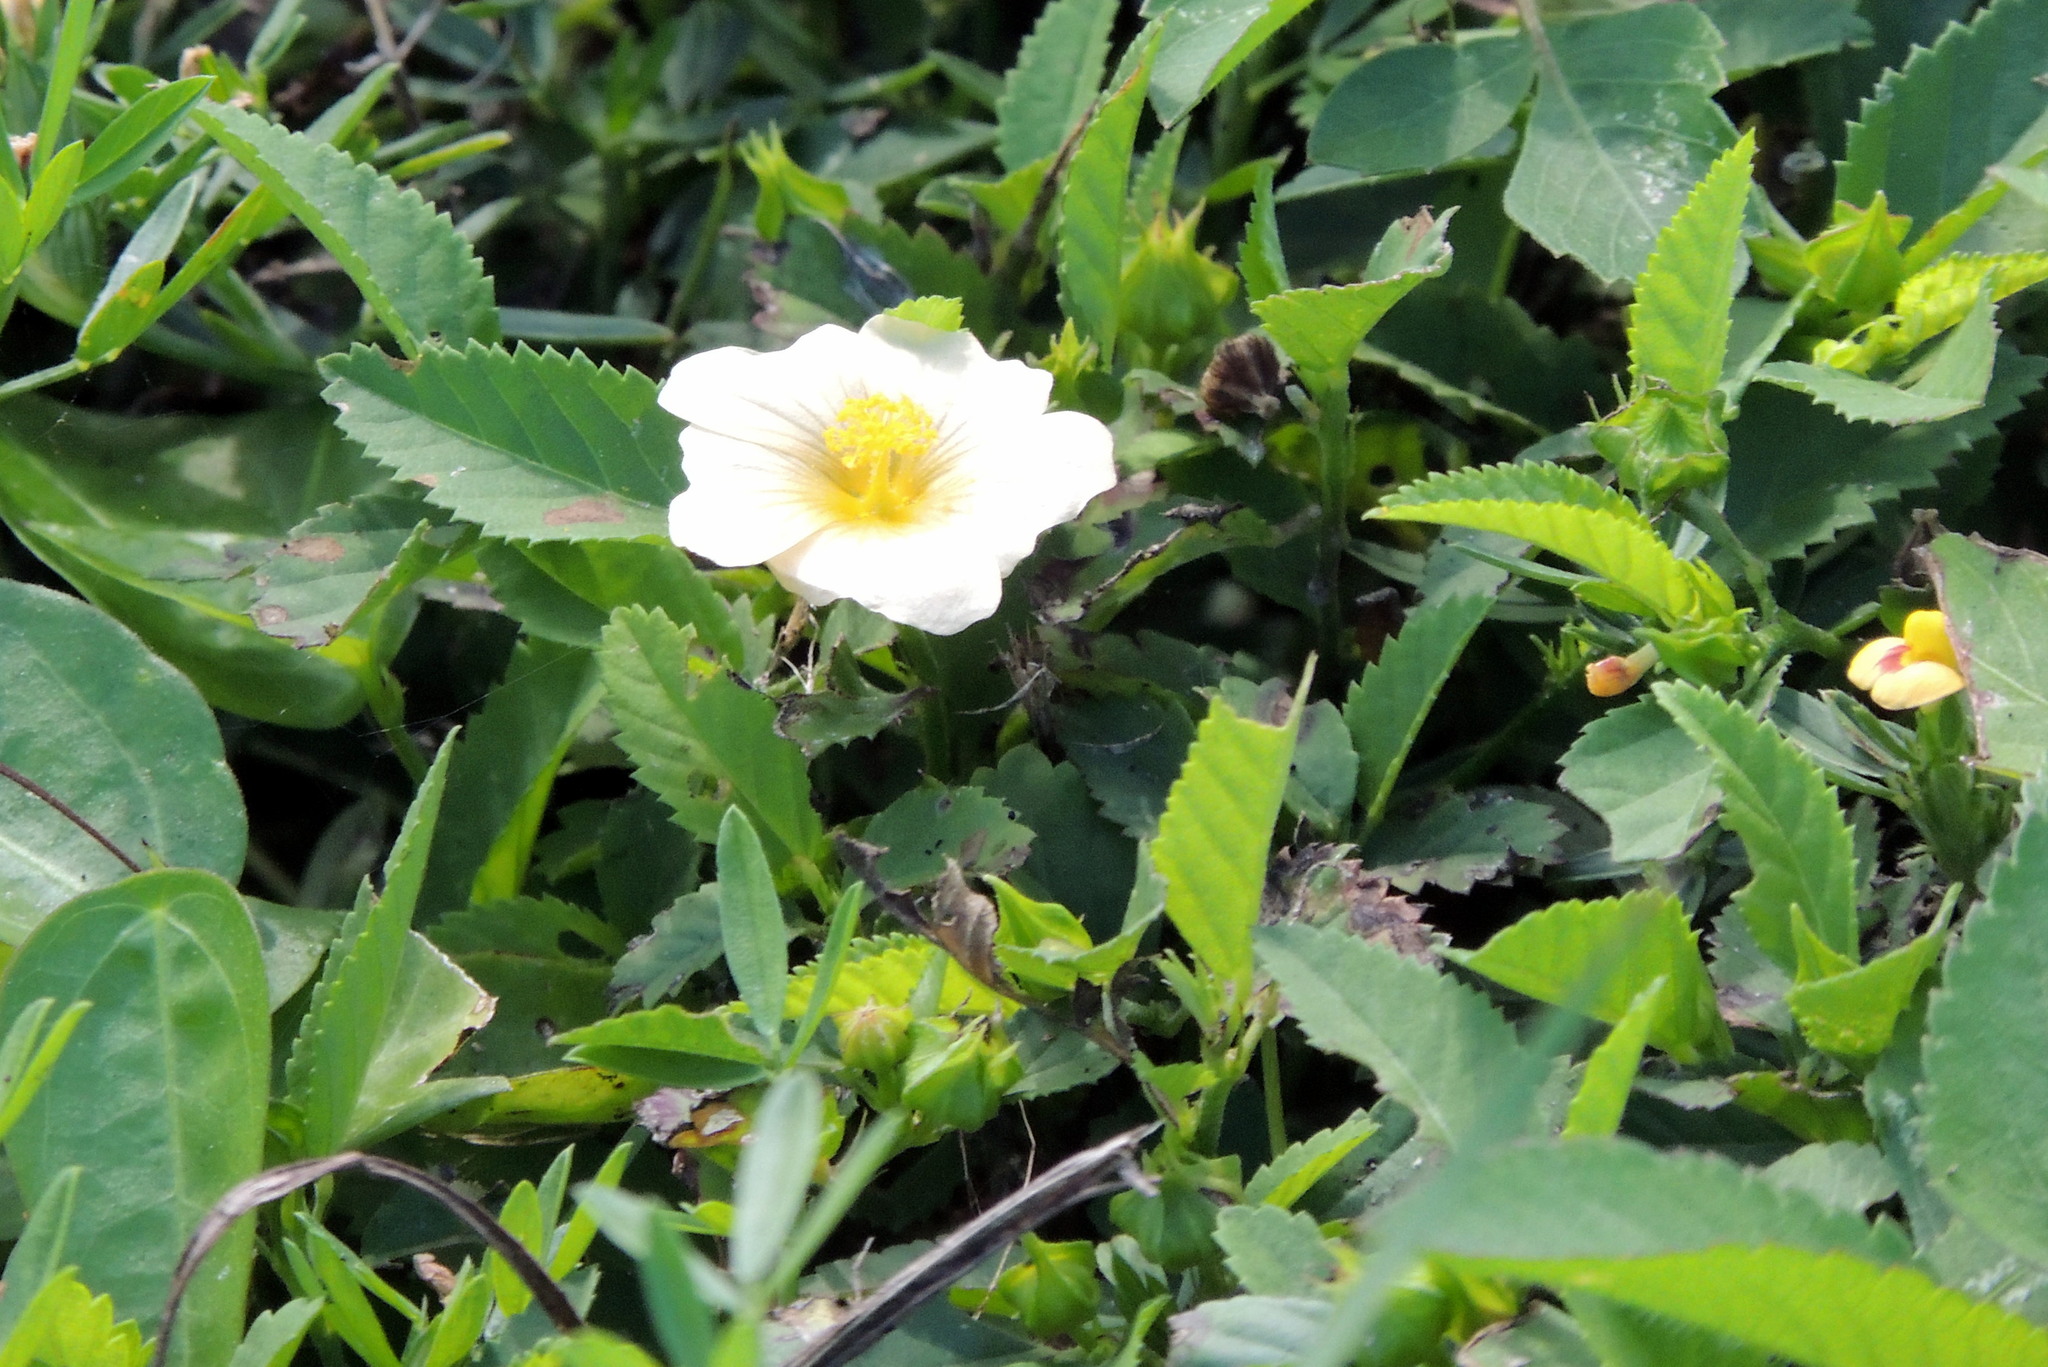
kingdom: Plantae
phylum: Tracheophyta
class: Magnoliopsida
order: Malvales
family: Malvaceae
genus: Sida
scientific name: Sida ulmifolia
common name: Broom weed
